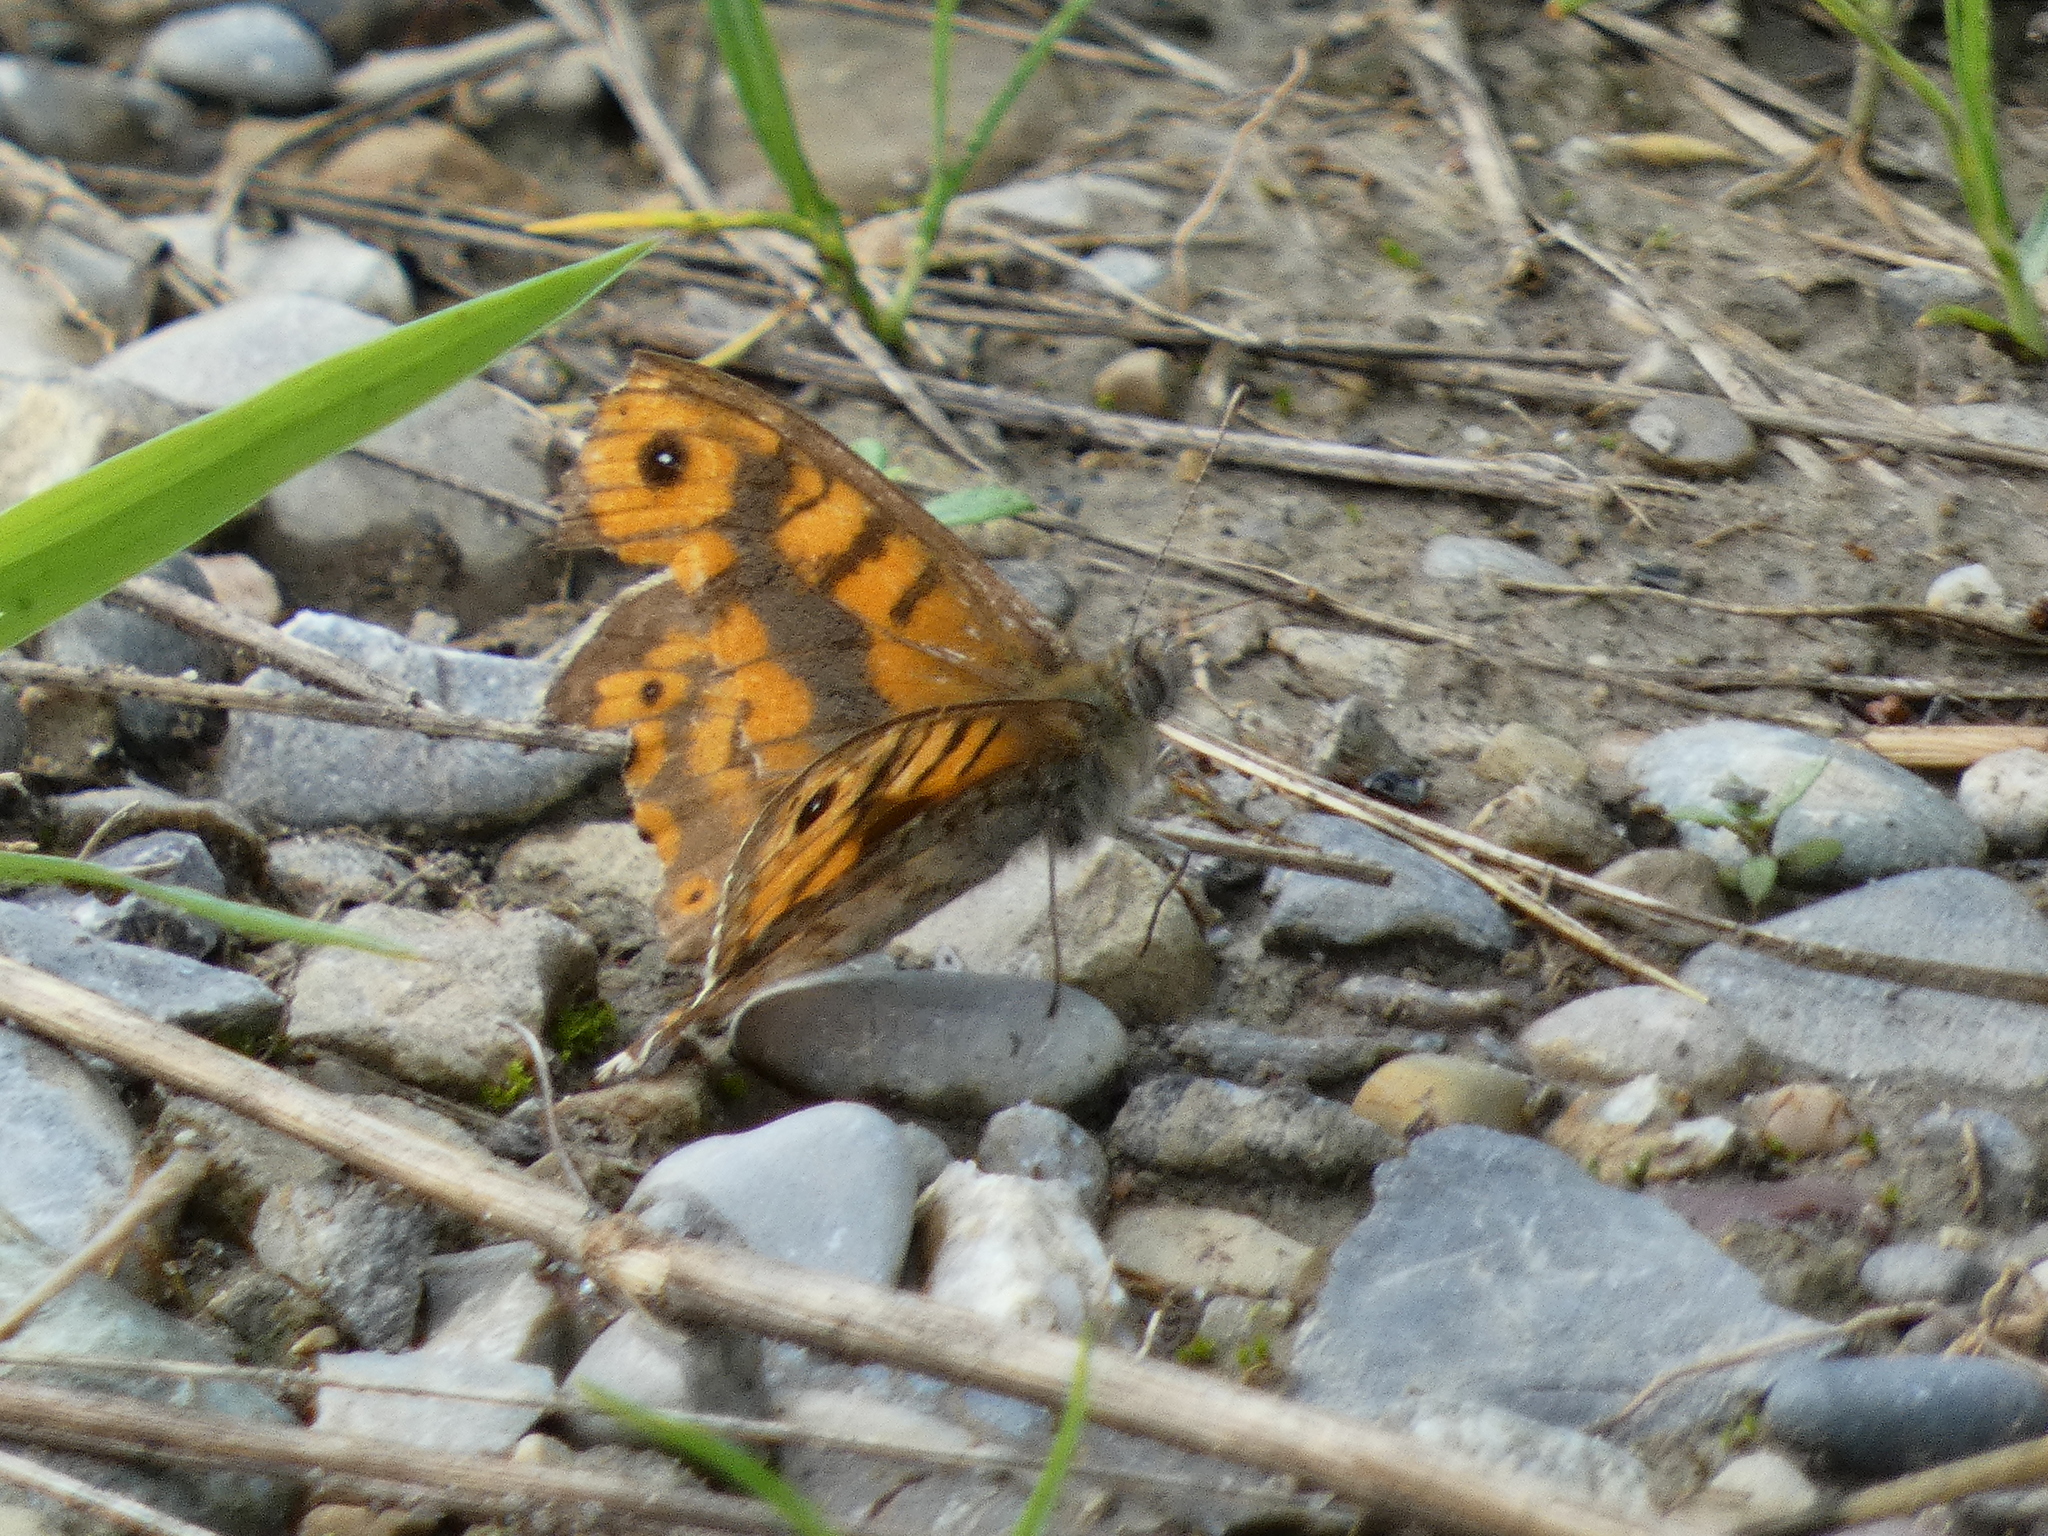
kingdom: Animalia
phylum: Arthropoda
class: Insecta
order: Lepidoptera
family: Nymphalidae
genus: Pararge
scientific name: Pararge Lasiommata megera
